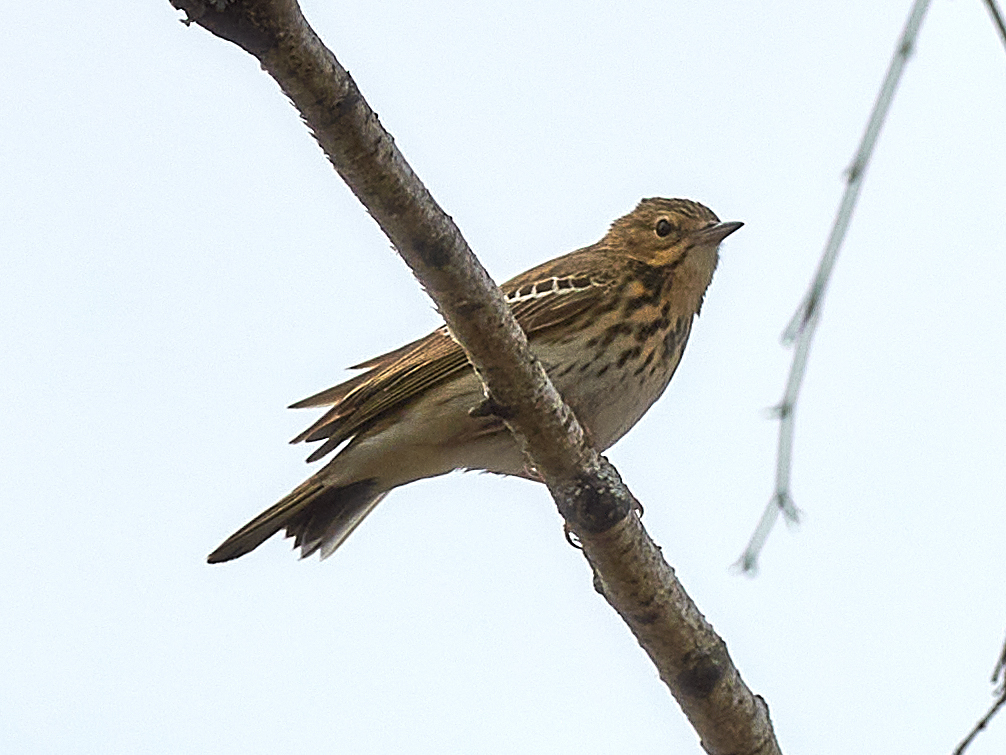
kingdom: Animalia
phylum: Chordata
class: Aves
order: Passeriformes
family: Motacillidae
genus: Anthus
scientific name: Anthus trivialis
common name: Tree pipit
